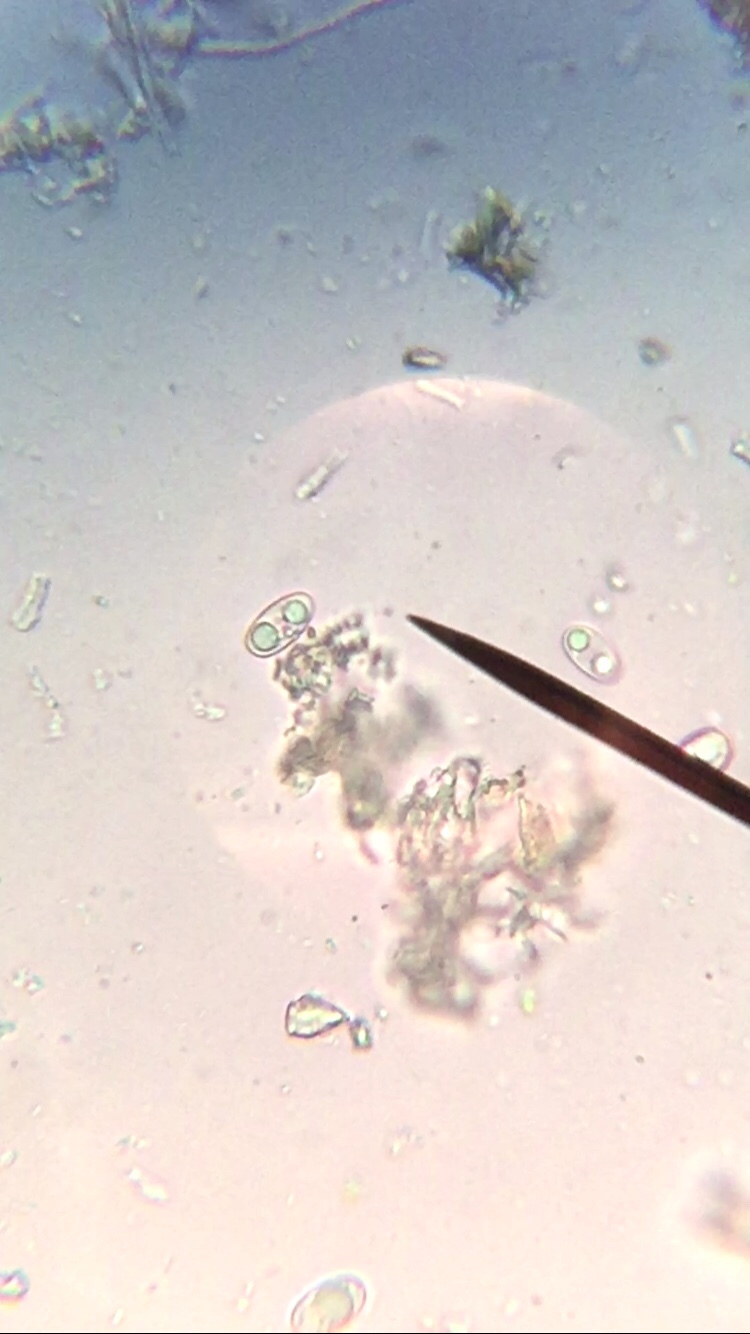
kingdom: Fungi
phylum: Ascomycota
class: Lecanoromycetes
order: Lecanorales
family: Lecanoraceae
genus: Lecidella
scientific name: Lecidella stigmatea
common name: Limestone disc lichen
